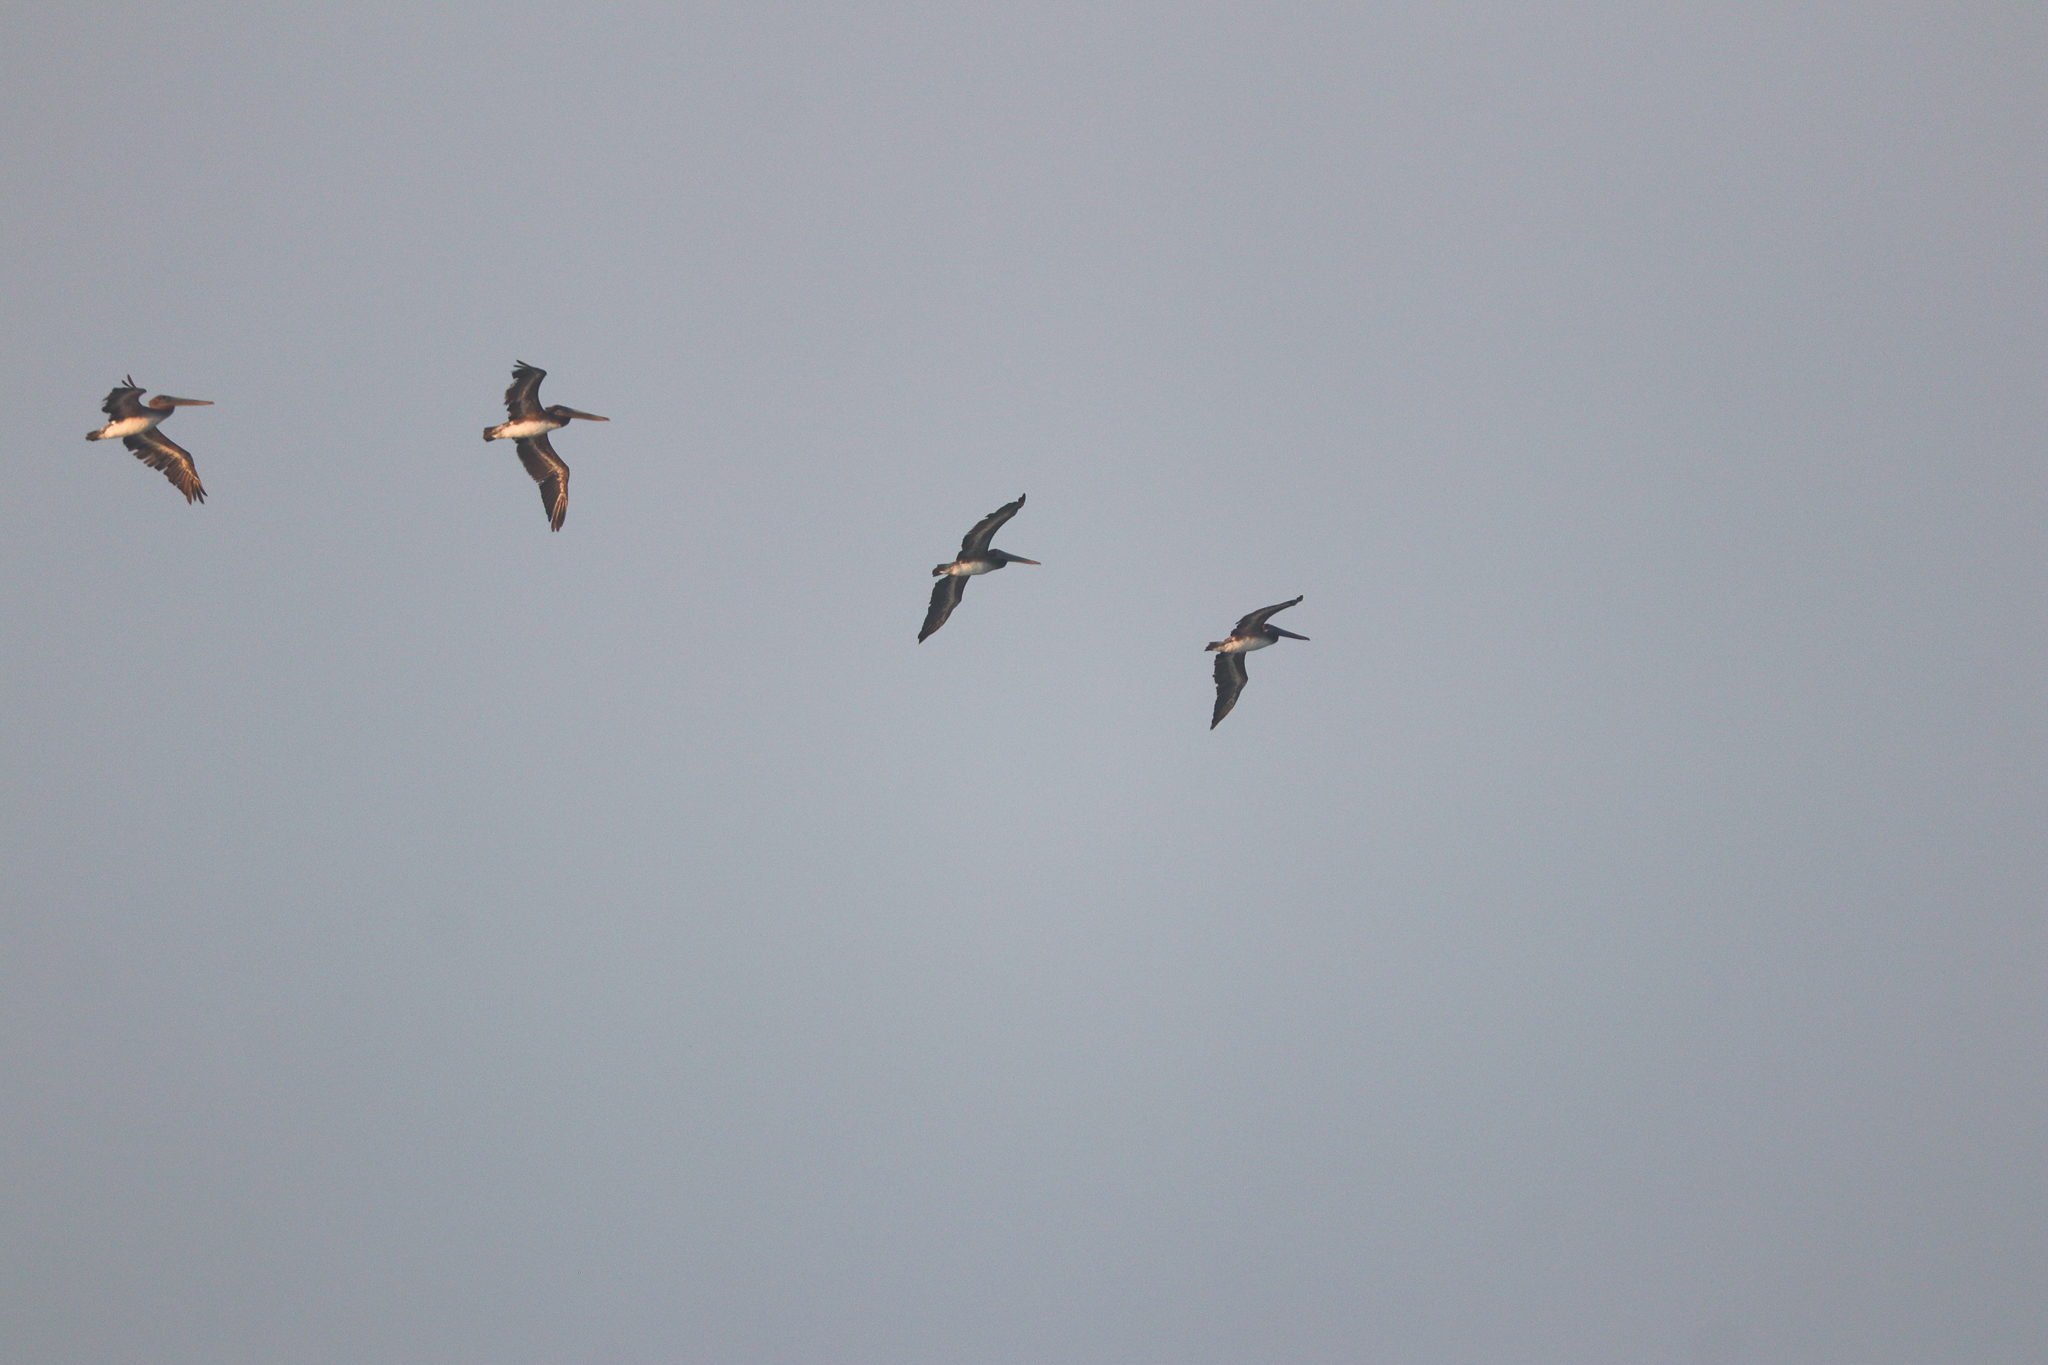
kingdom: Animalia
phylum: Chordata
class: Aves
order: Pelecaniformes
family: Pelecanidae
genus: Pelecanus
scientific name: Pelecanus occidentalis
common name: Brown pelican
